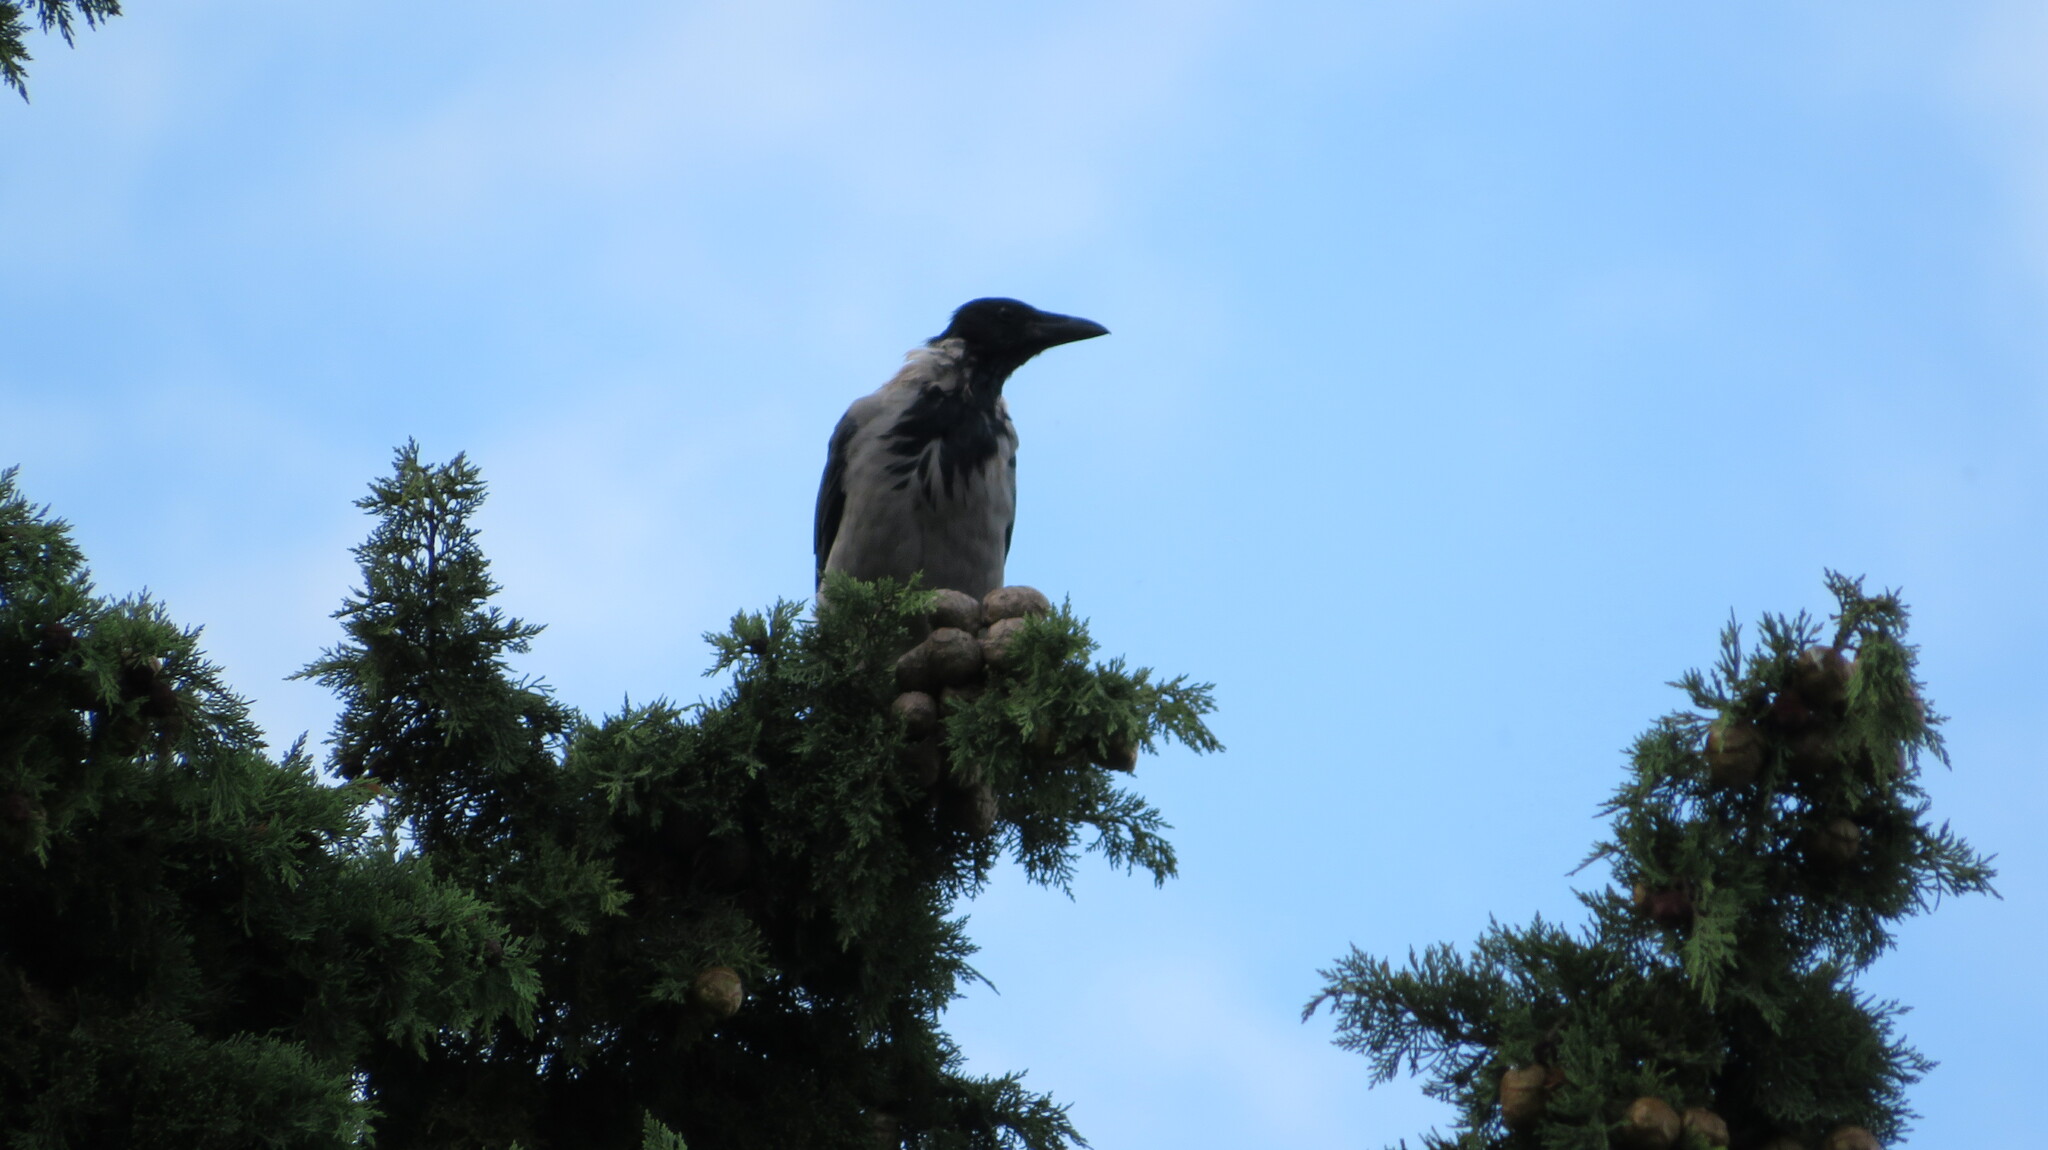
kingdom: Animalia
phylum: Chordata
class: Aves
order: Passeriformes
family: Corvidae
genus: Corvus
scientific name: Corvus cornix
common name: Hooded crow
